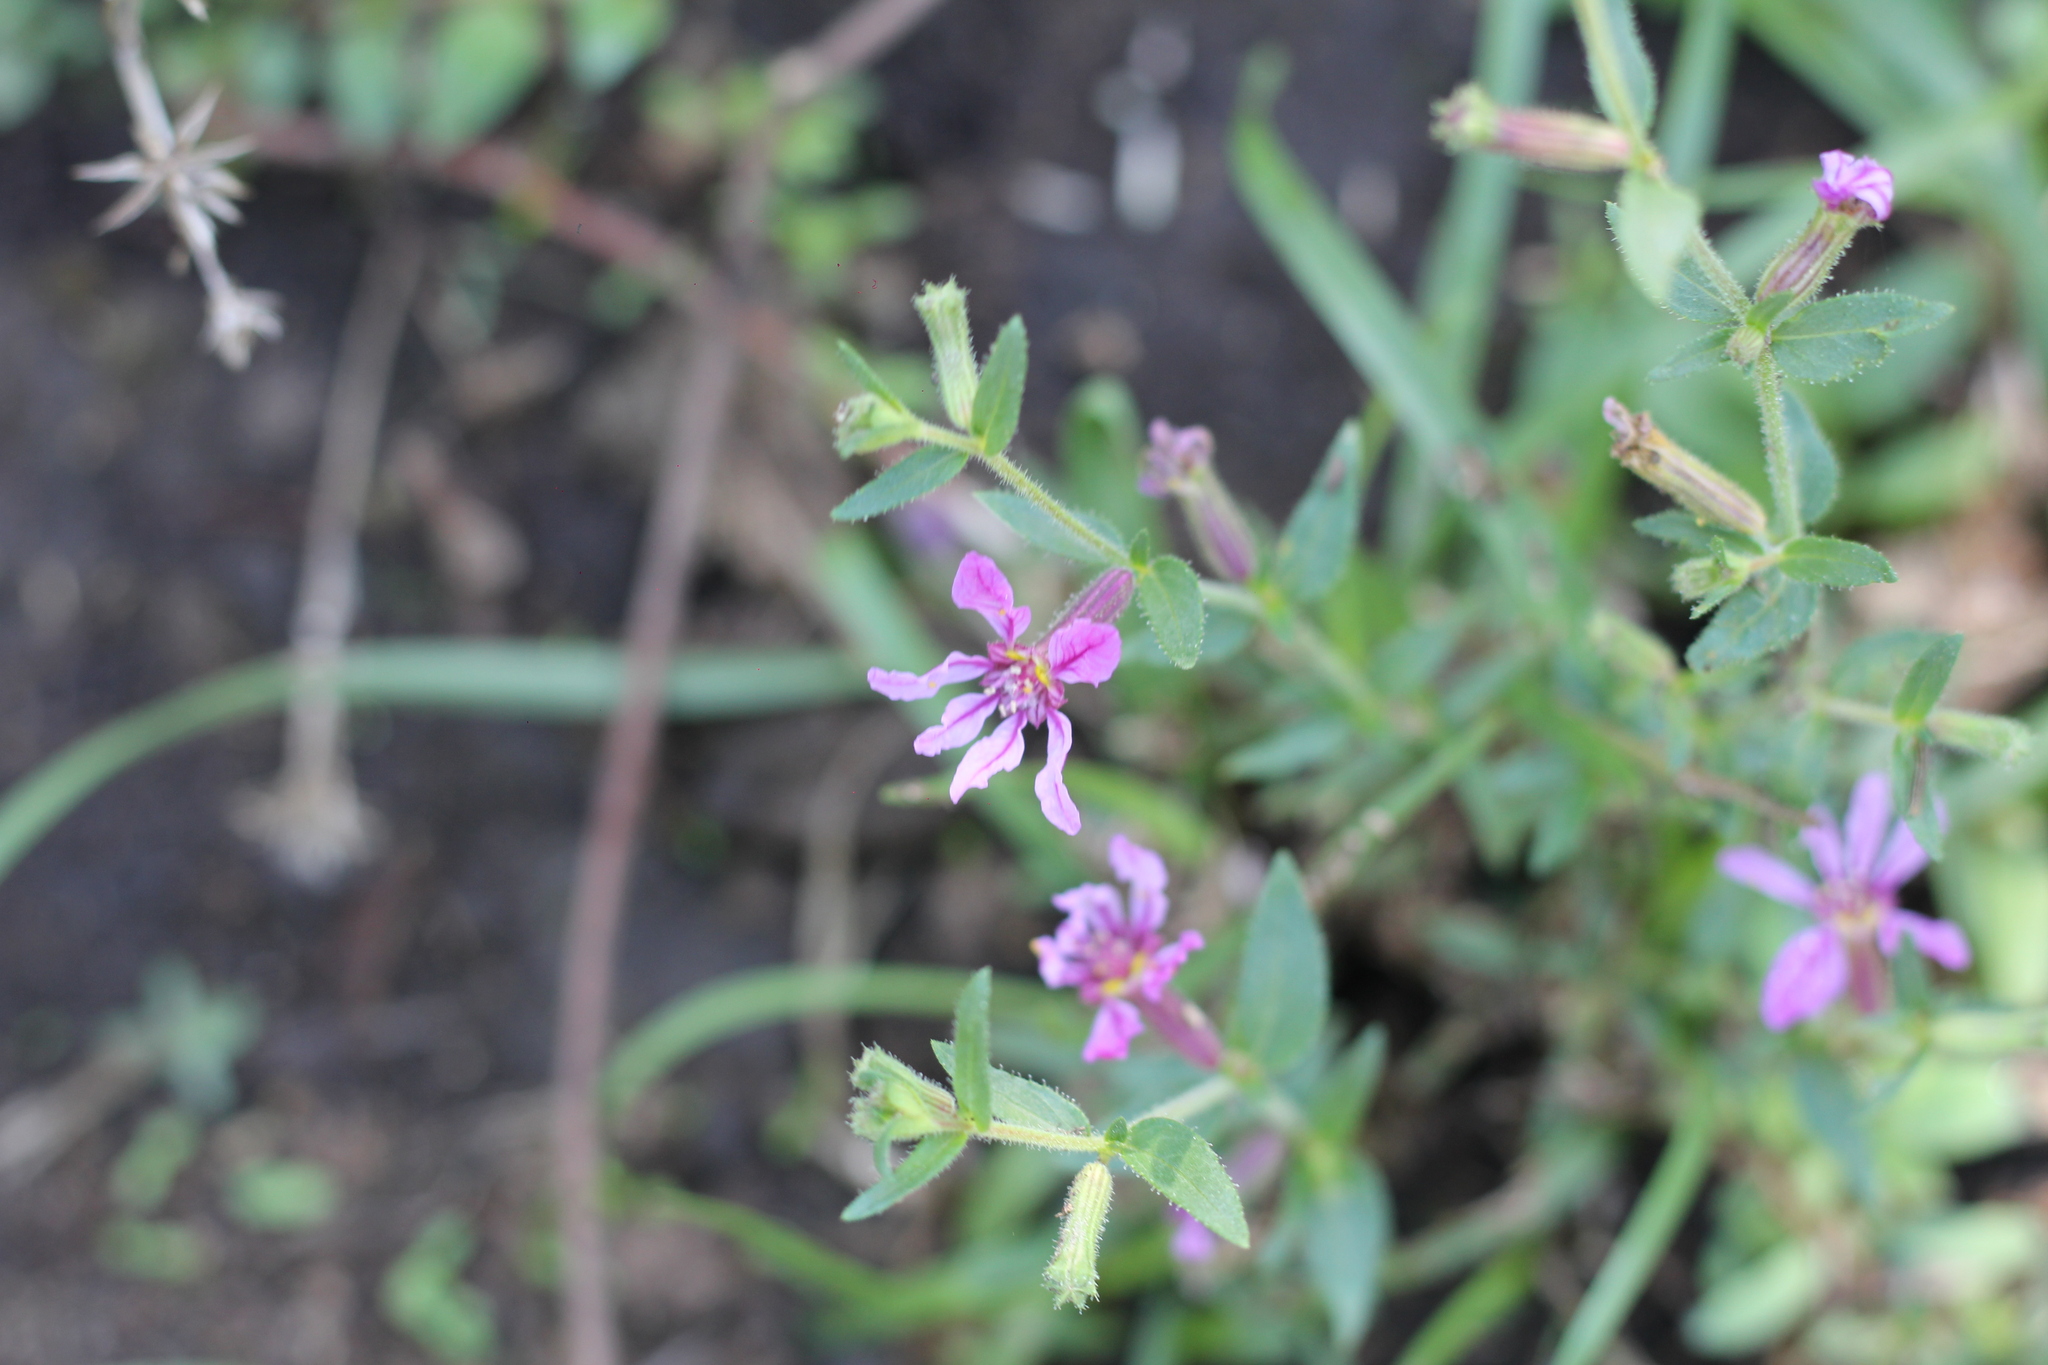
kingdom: Plantae
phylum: Tracheophyta
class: Magnoliopsida
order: Myrtales
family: Lythraceae
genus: Cuphea
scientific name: Cuphea glutinosa
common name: Sticky waxweed
